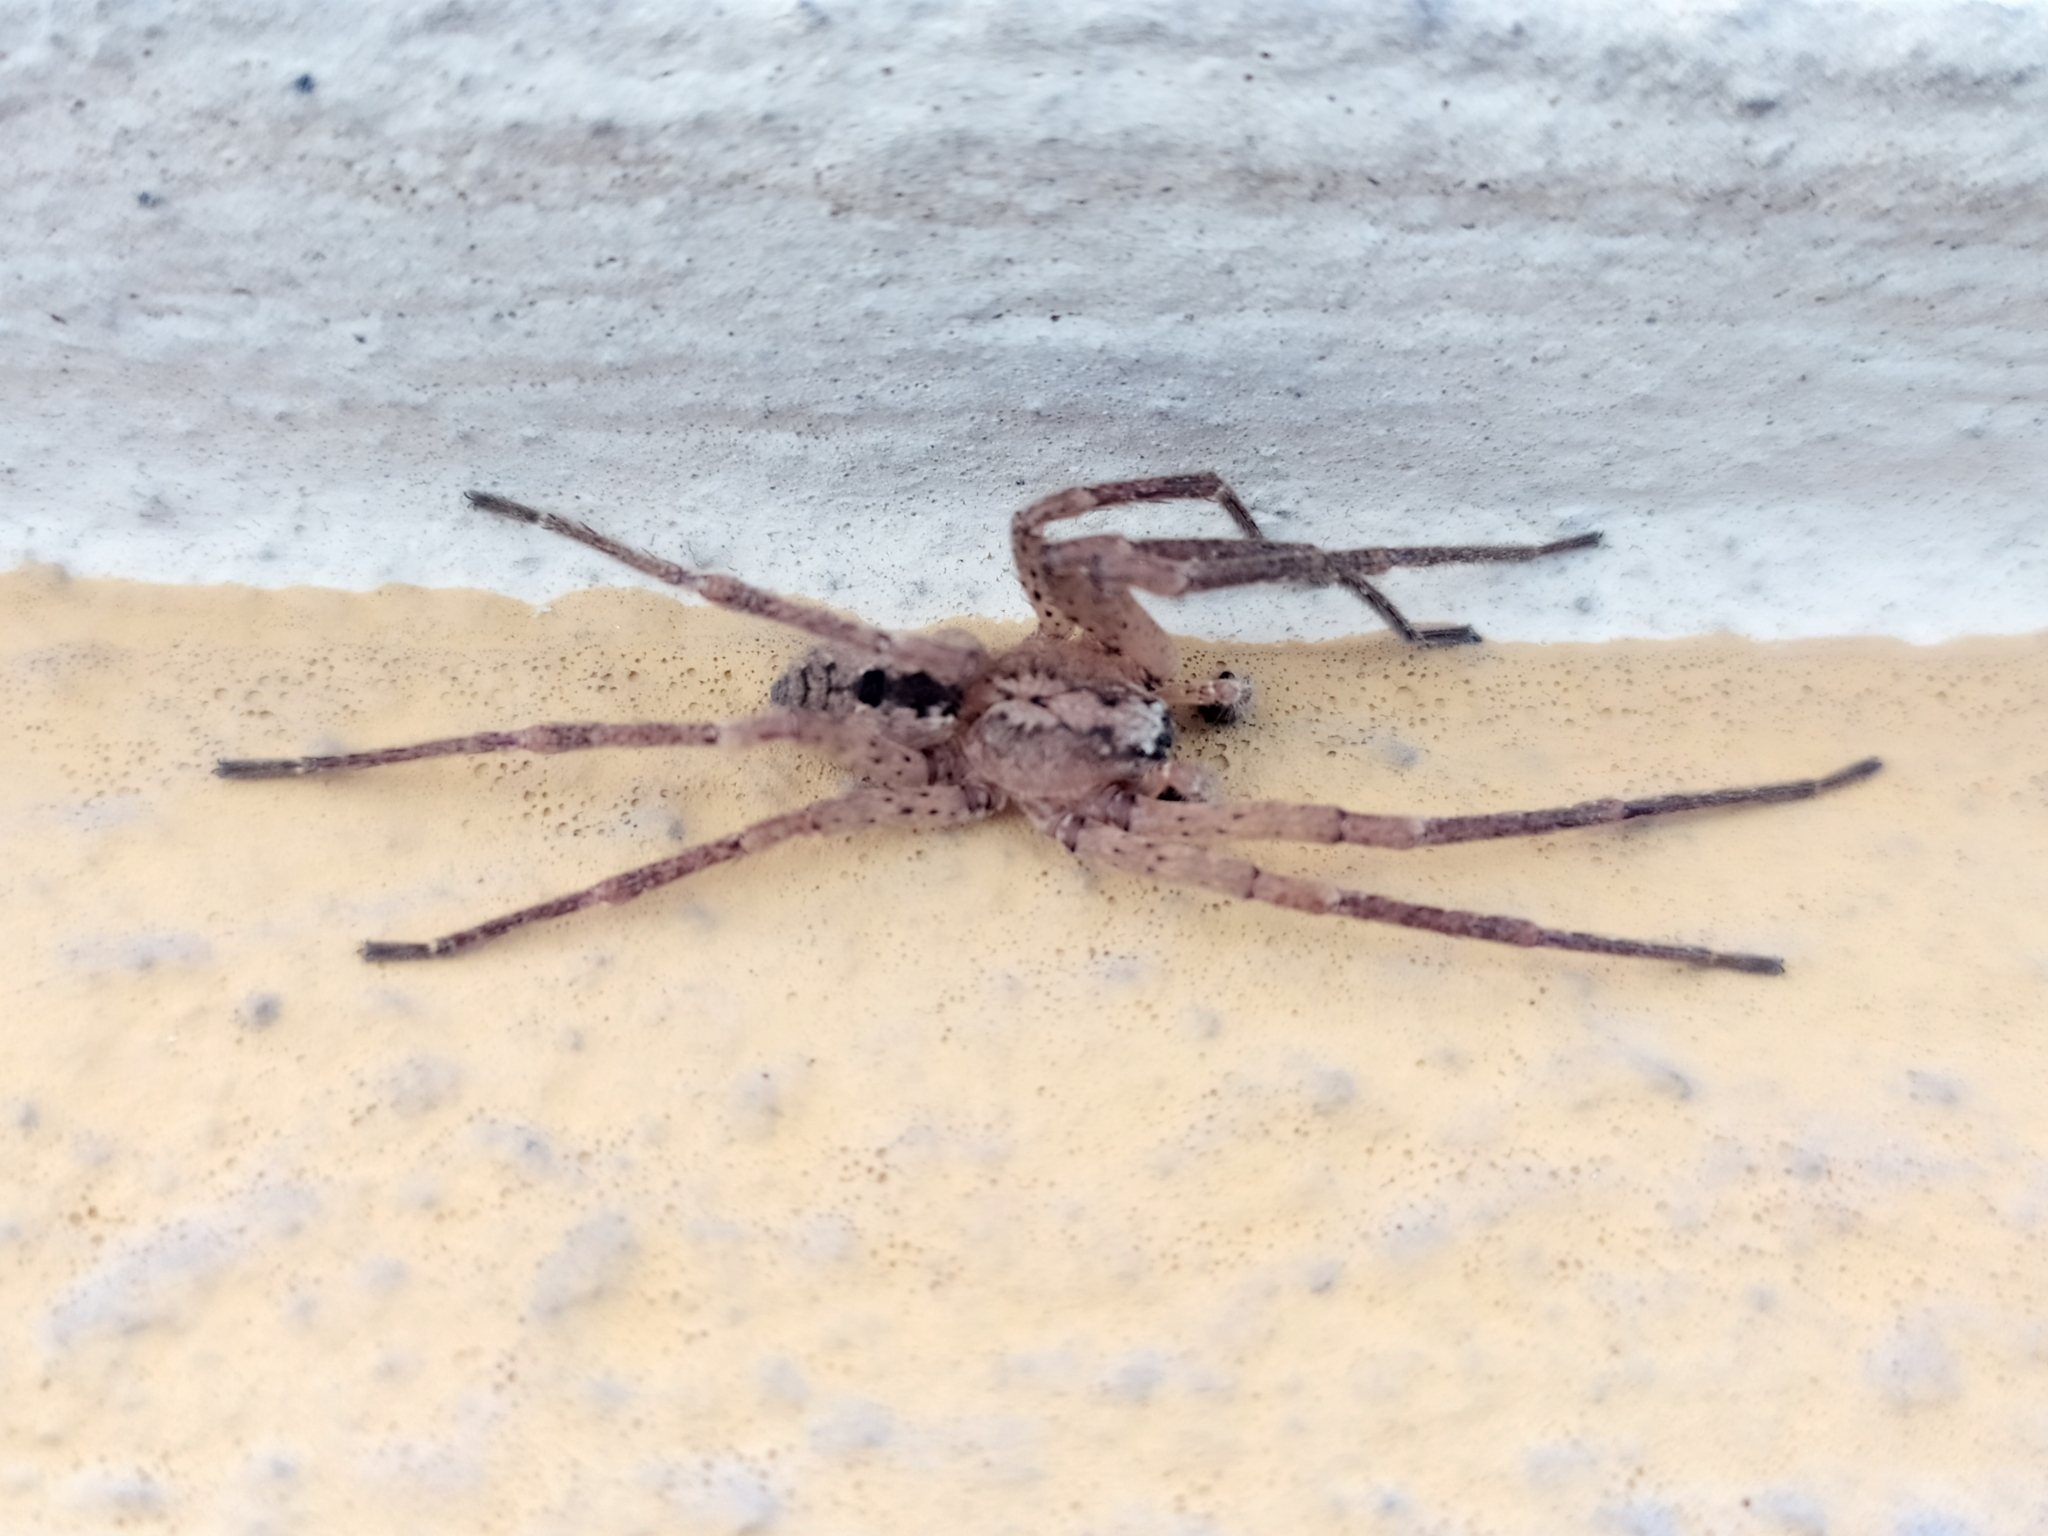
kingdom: Animalia
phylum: Arthropoda
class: Arachnida
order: Araneae
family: Zoropsidae
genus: Zoropsis
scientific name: Zoropsis spinimana
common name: Zoropsid spider
